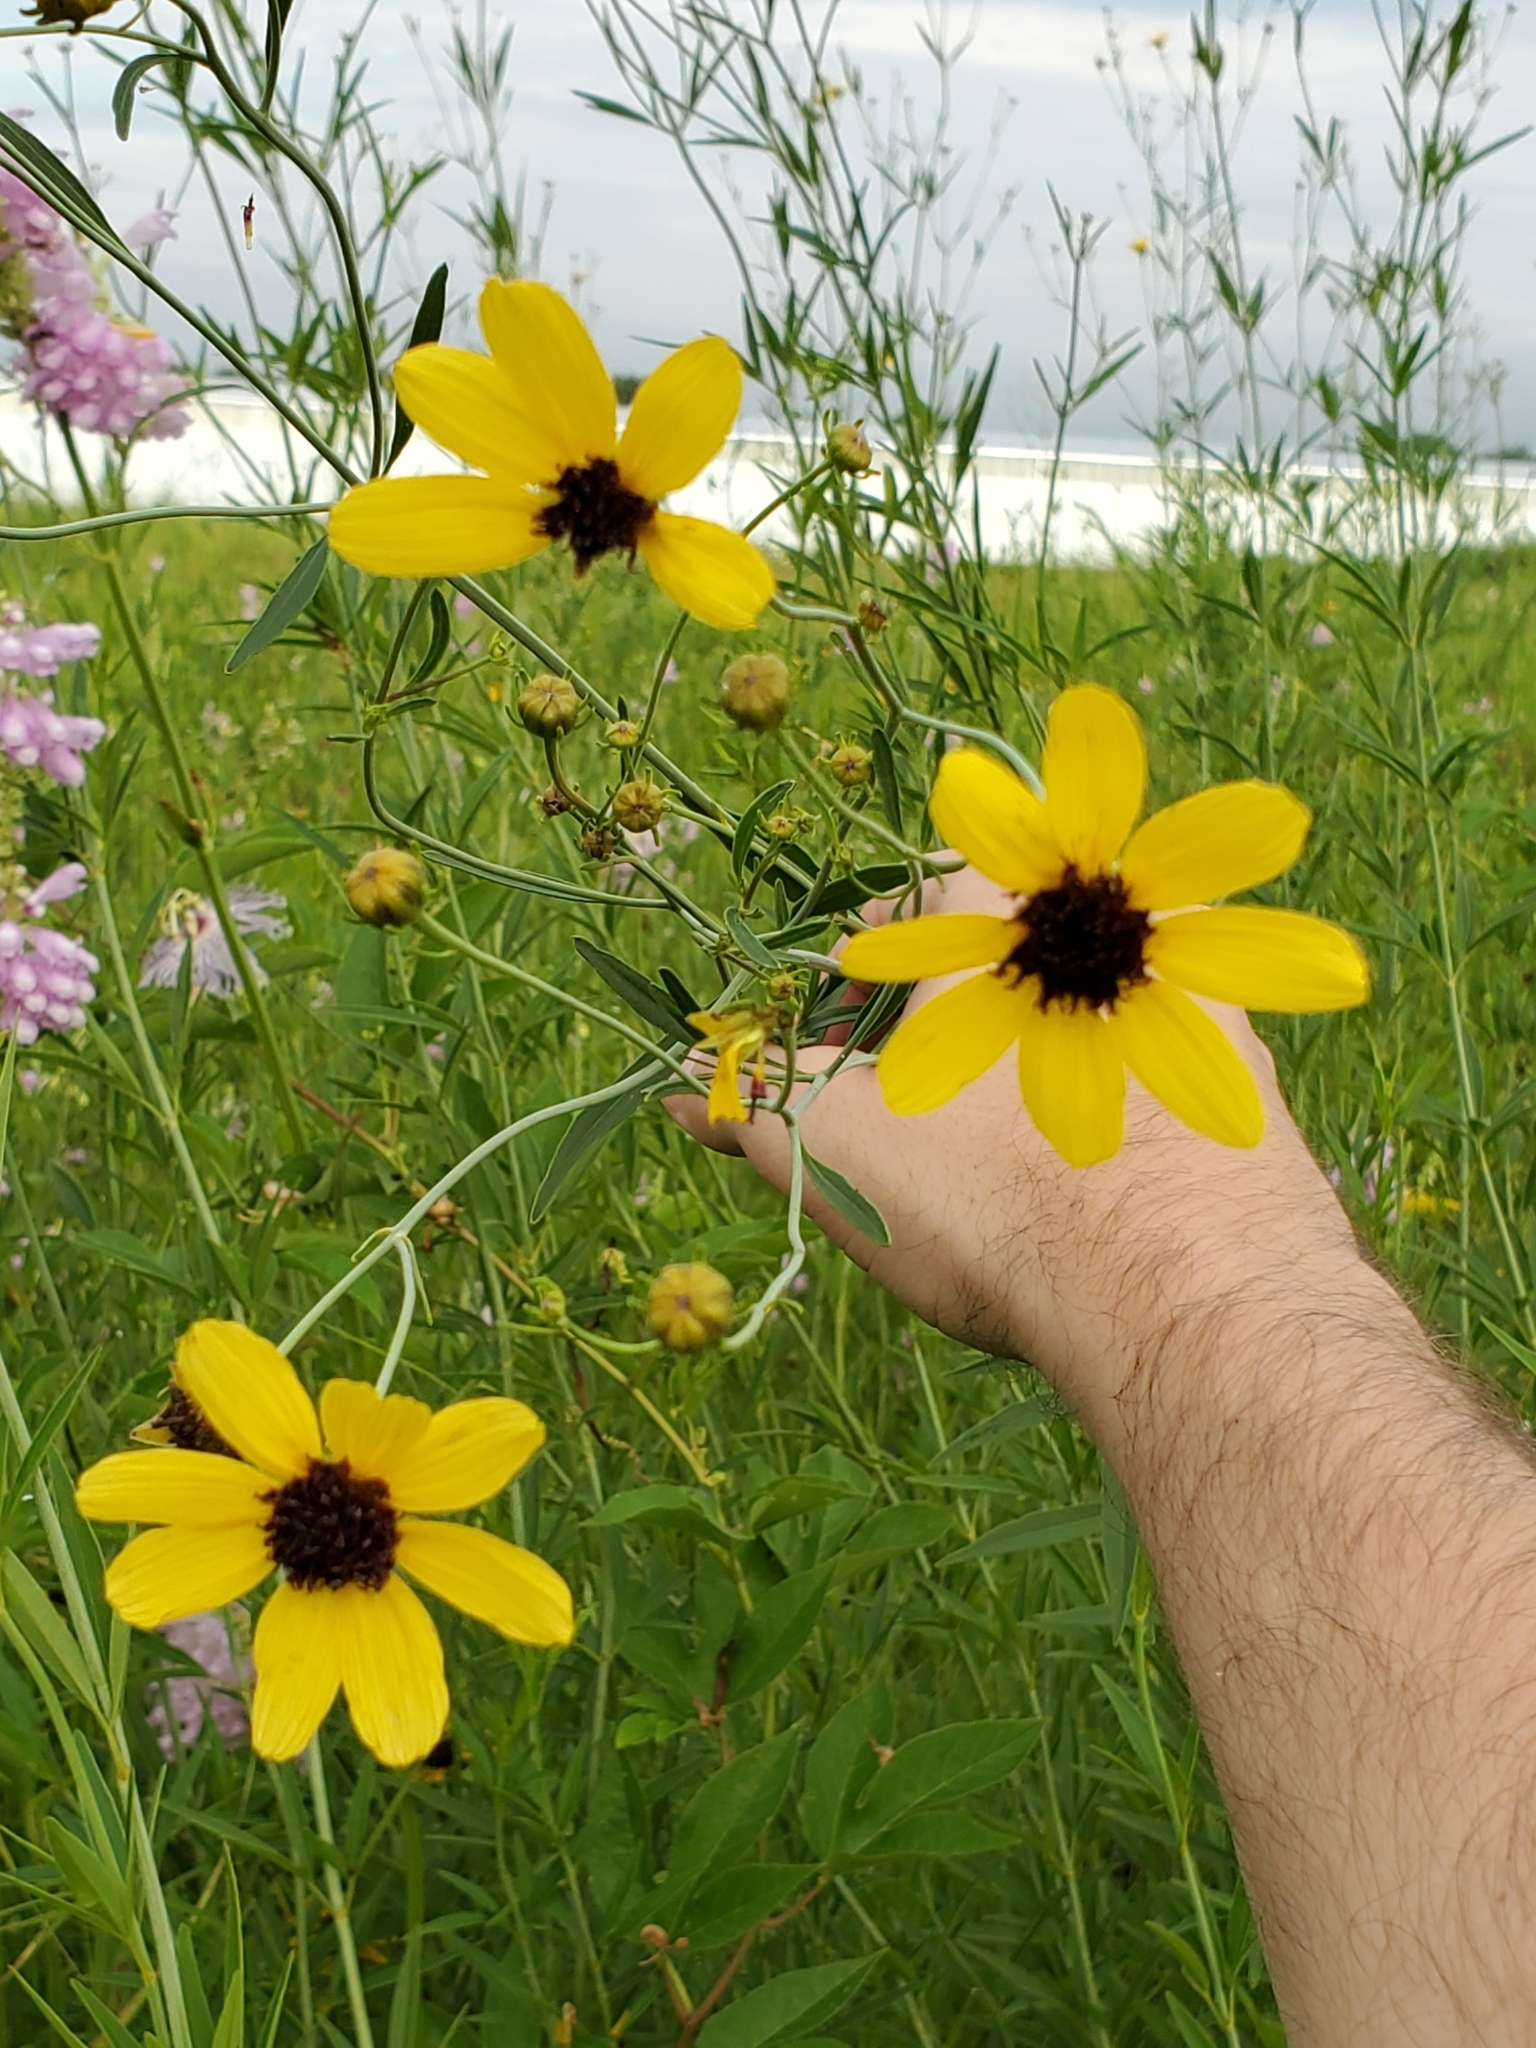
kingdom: Plantae
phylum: Tracheophyta
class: Magnoliopsida
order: Asterales
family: Asteraceae
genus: Coreopsis
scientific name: Coreopsis tripteris
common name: Tall coreopsis
